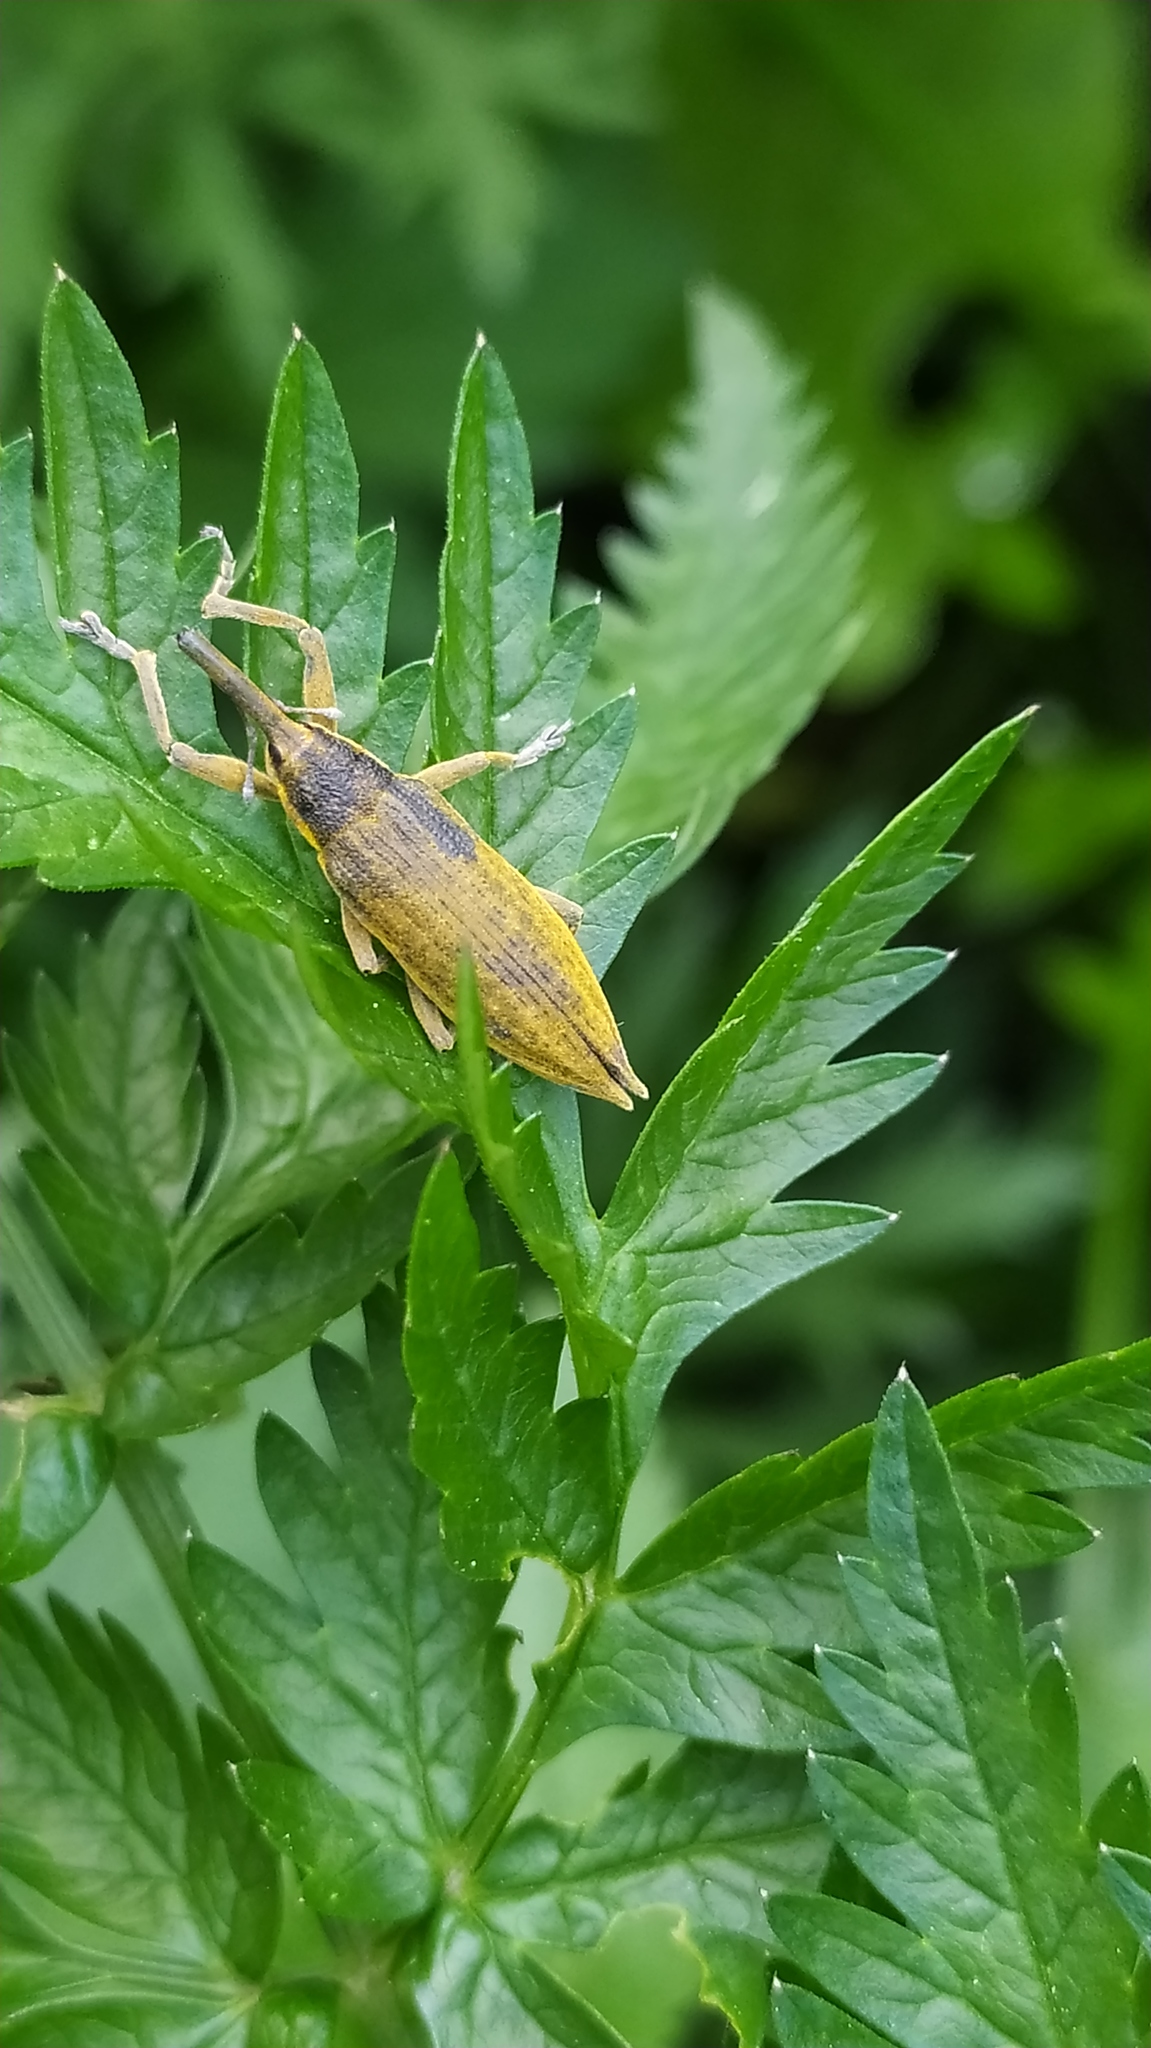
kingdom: Animalia
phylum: Arthropoda
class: Insecta
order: Coleoptera
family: Curculionidae
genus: Lixus
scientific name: Lixus iridis
